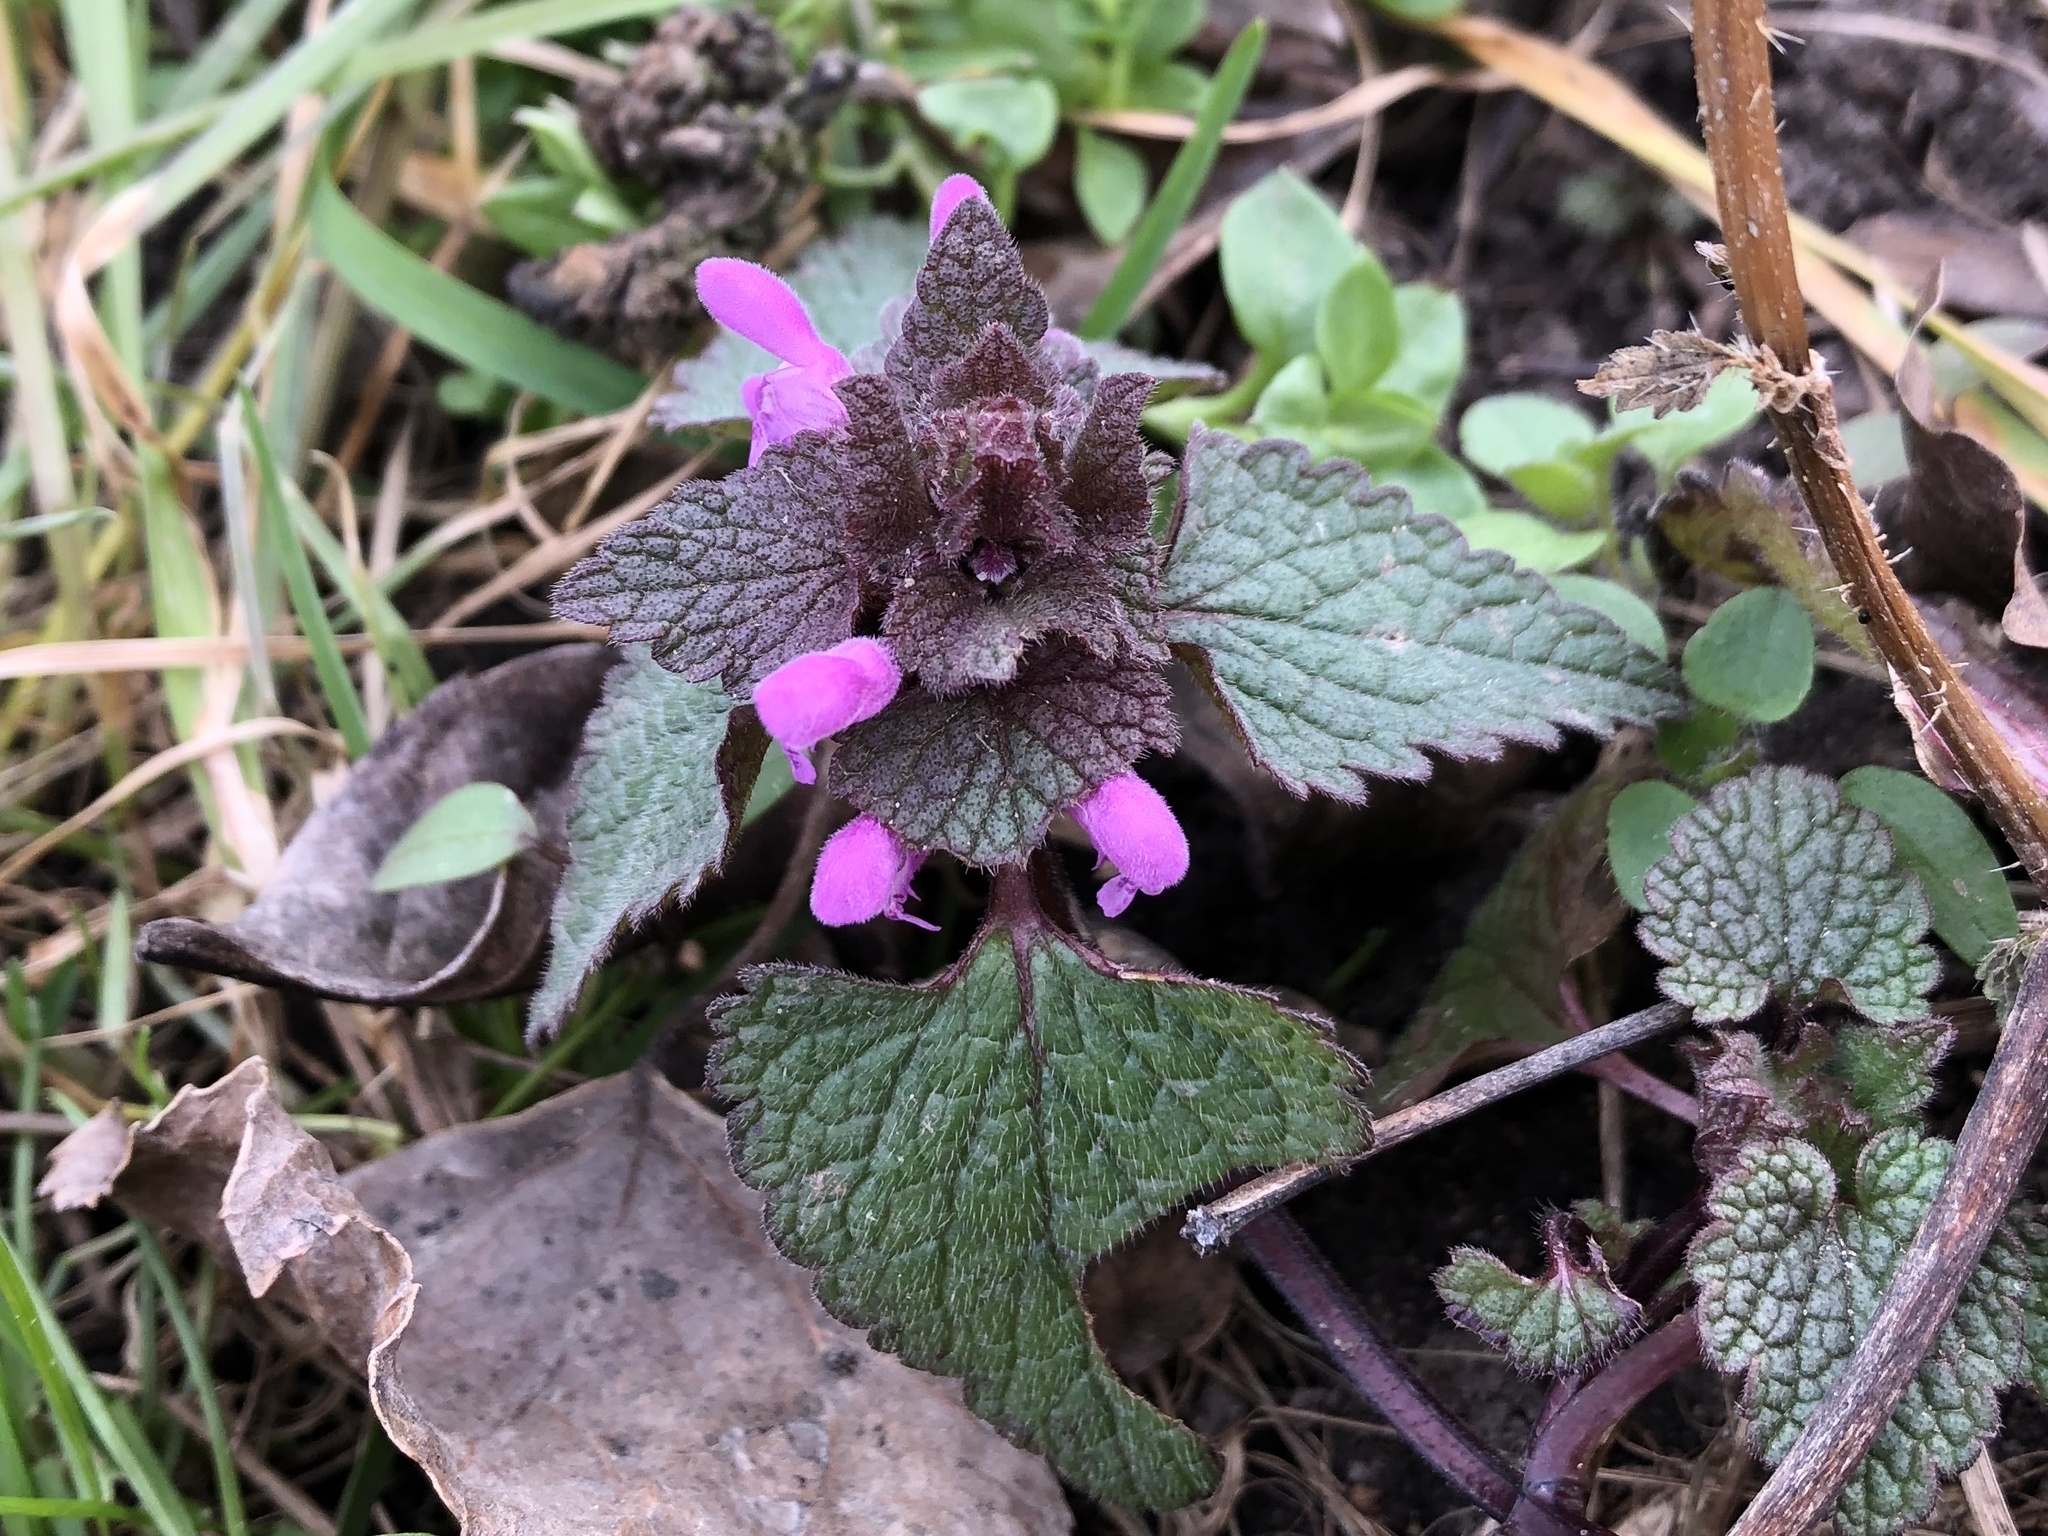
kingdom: Plantae
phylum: Tracheophyta
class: Magnoliopsida
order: Lamiales
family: Lamiaceae
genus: Lamium
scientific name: Lamium purpureum
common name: Red dead-nettle
